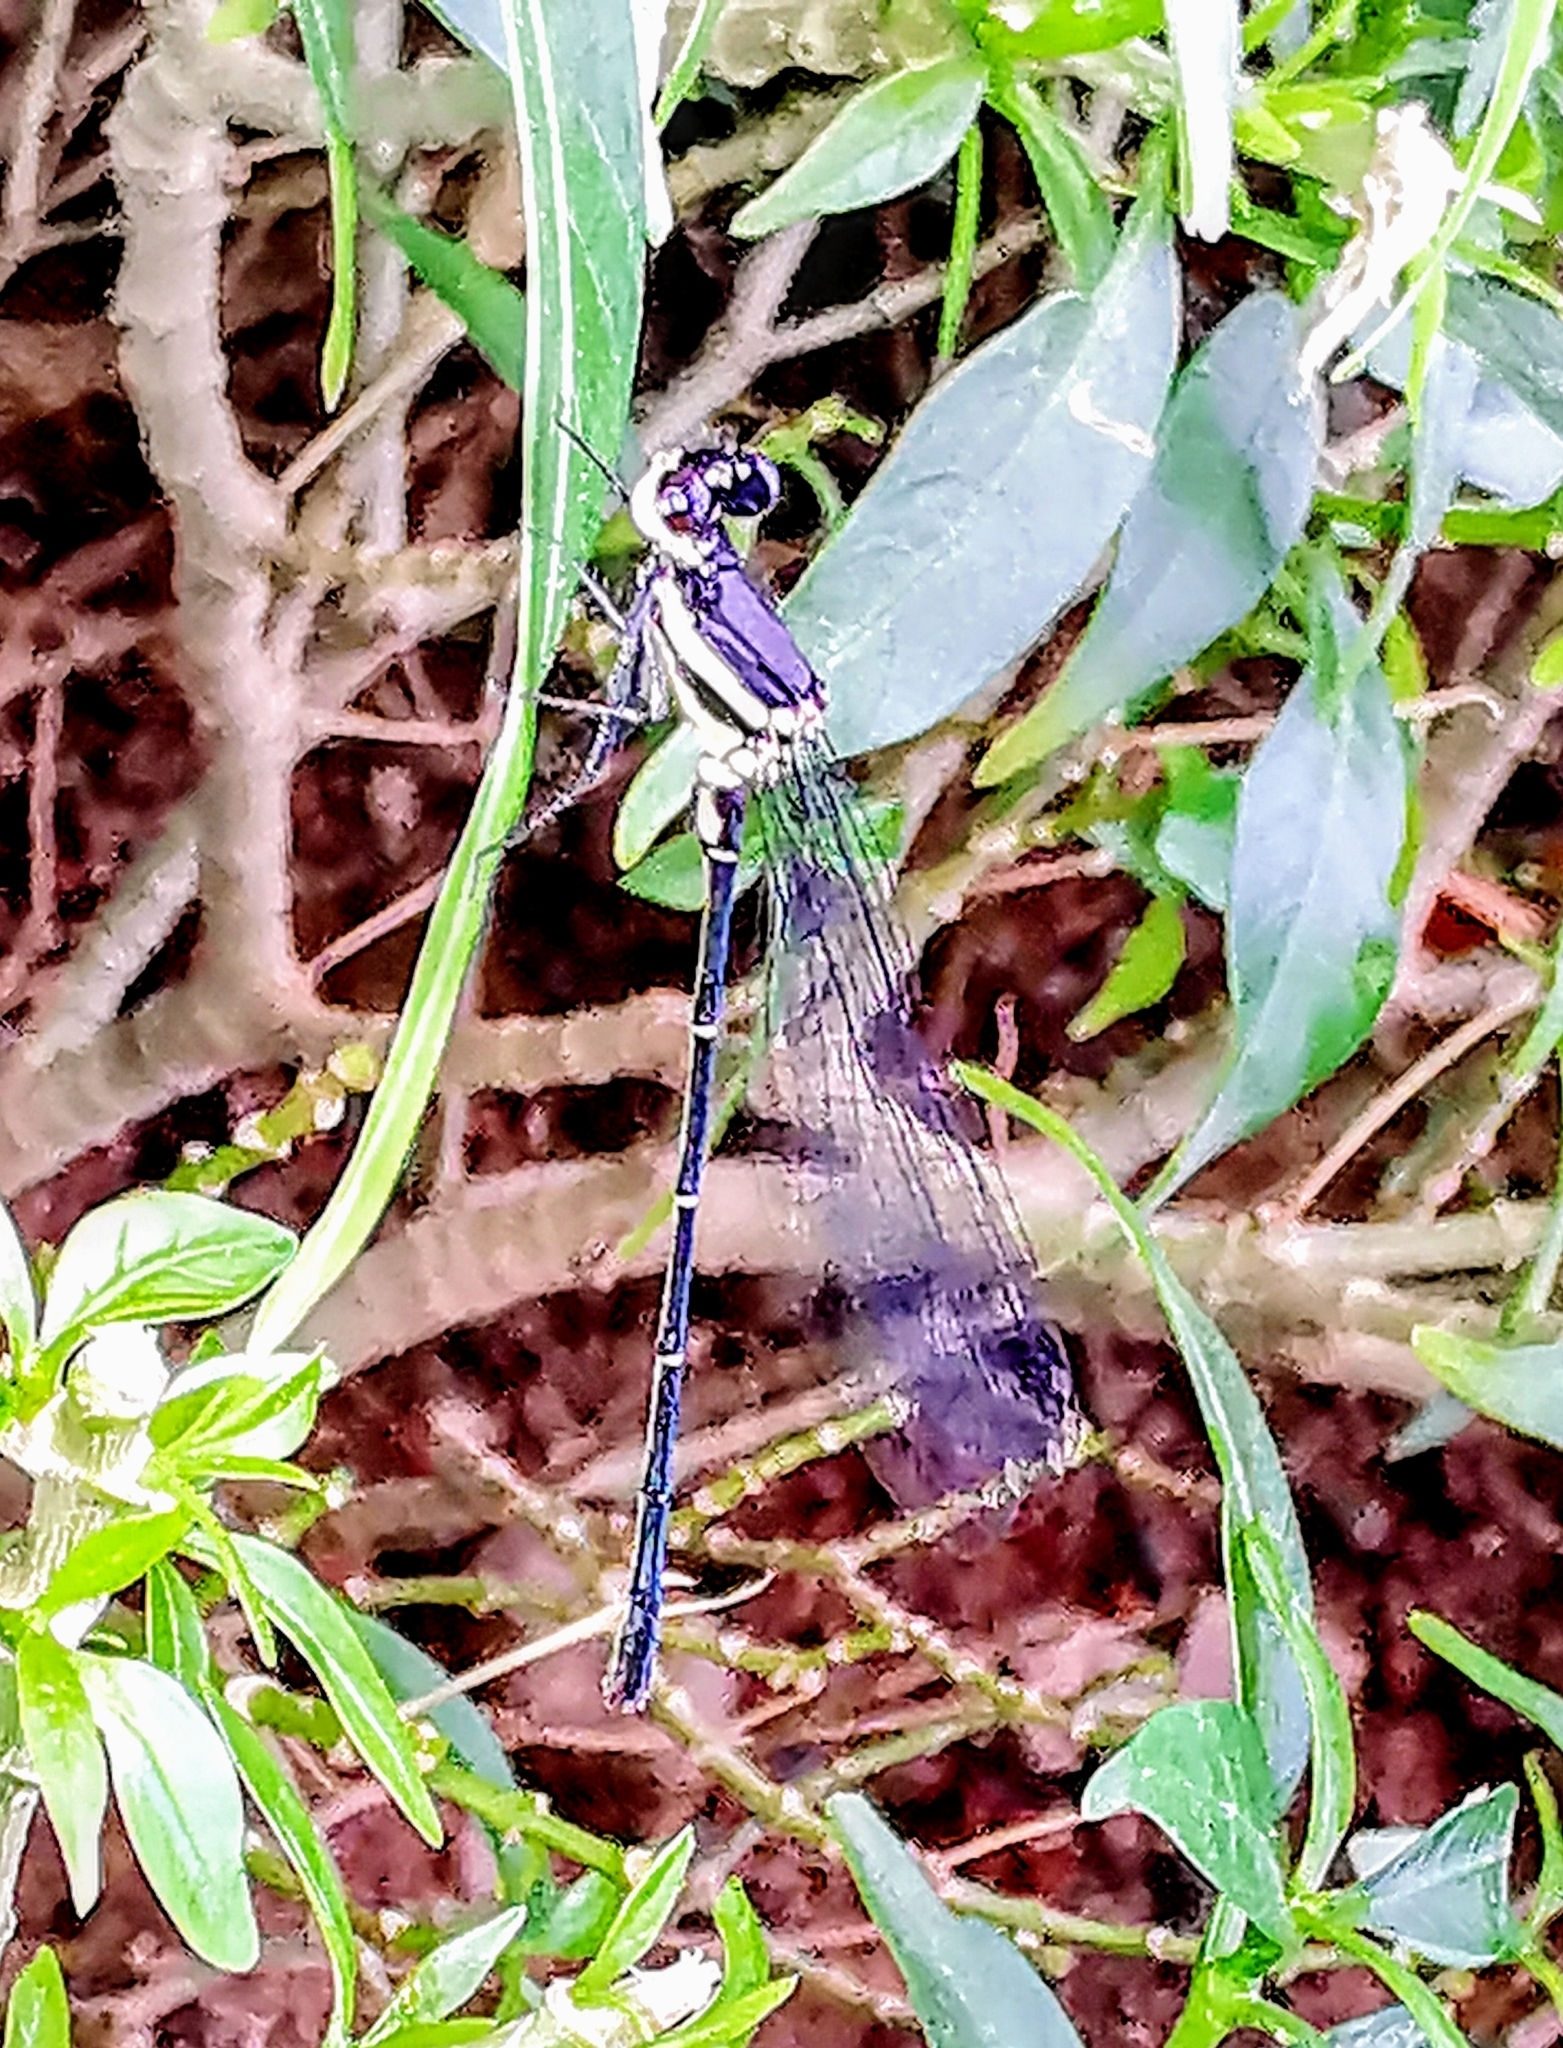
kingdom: Animalia
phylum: Arthropoda
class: Insecta
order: Odonata
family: Platycnemididae
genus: Onychargia
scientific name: Onychargia atrocyana
